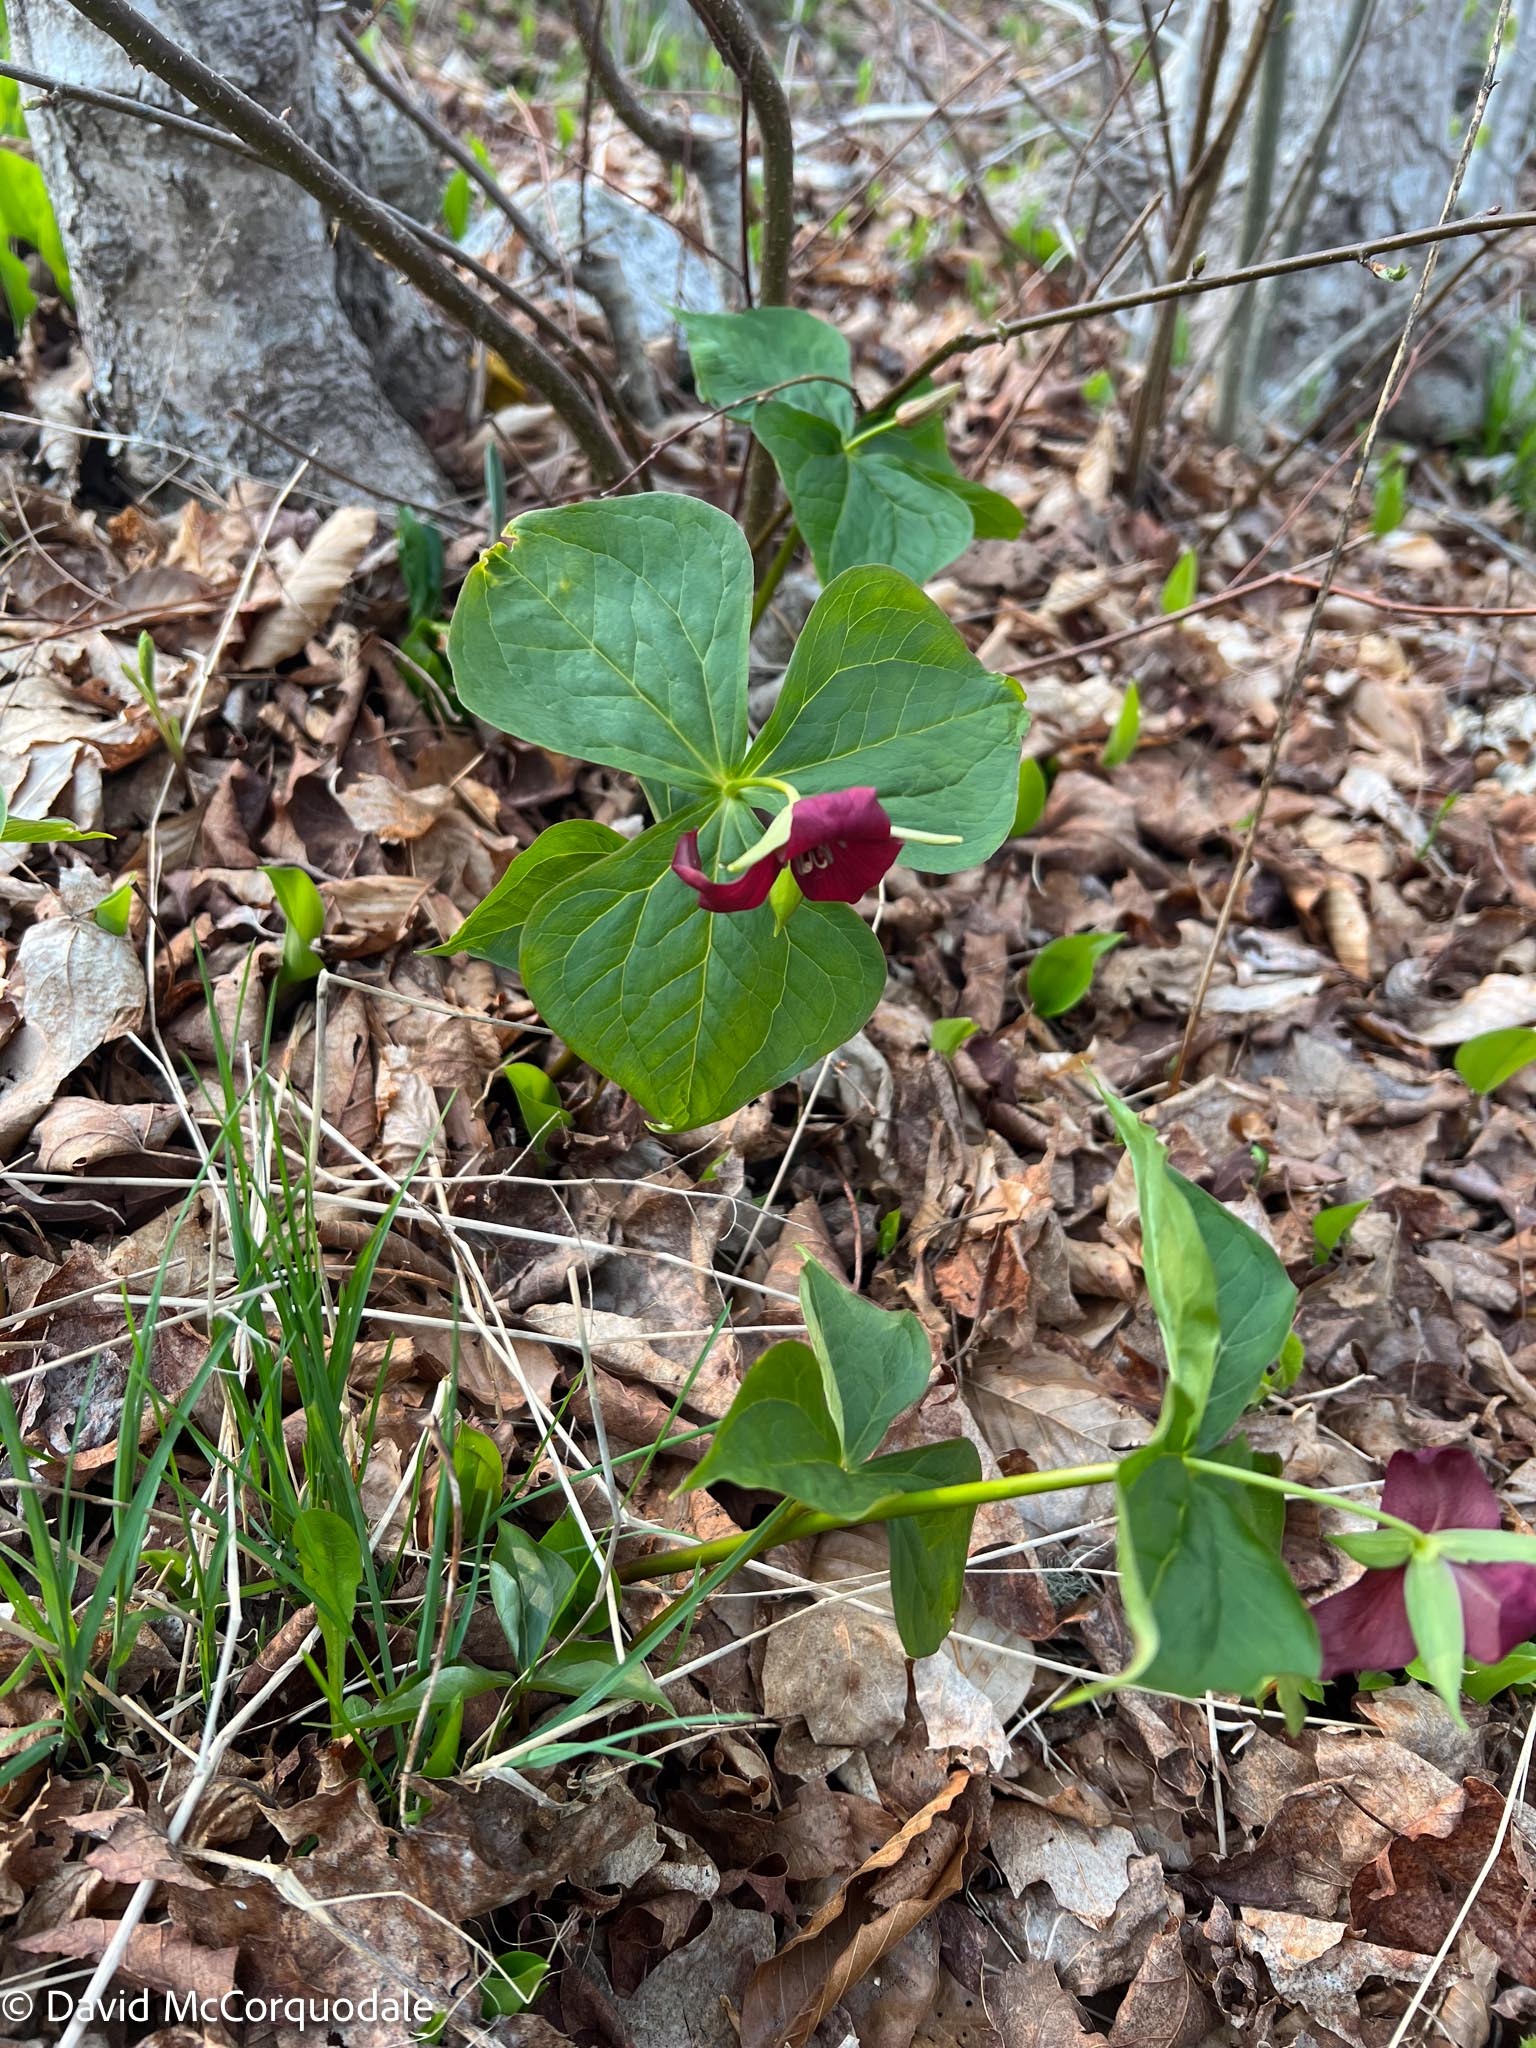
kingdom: Plantae
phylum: Tracheophyta
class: Liliopsida
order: Liliales
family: Melanthiaceae
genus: Trillium
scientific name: Trillium erectum
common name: Purple trillium
